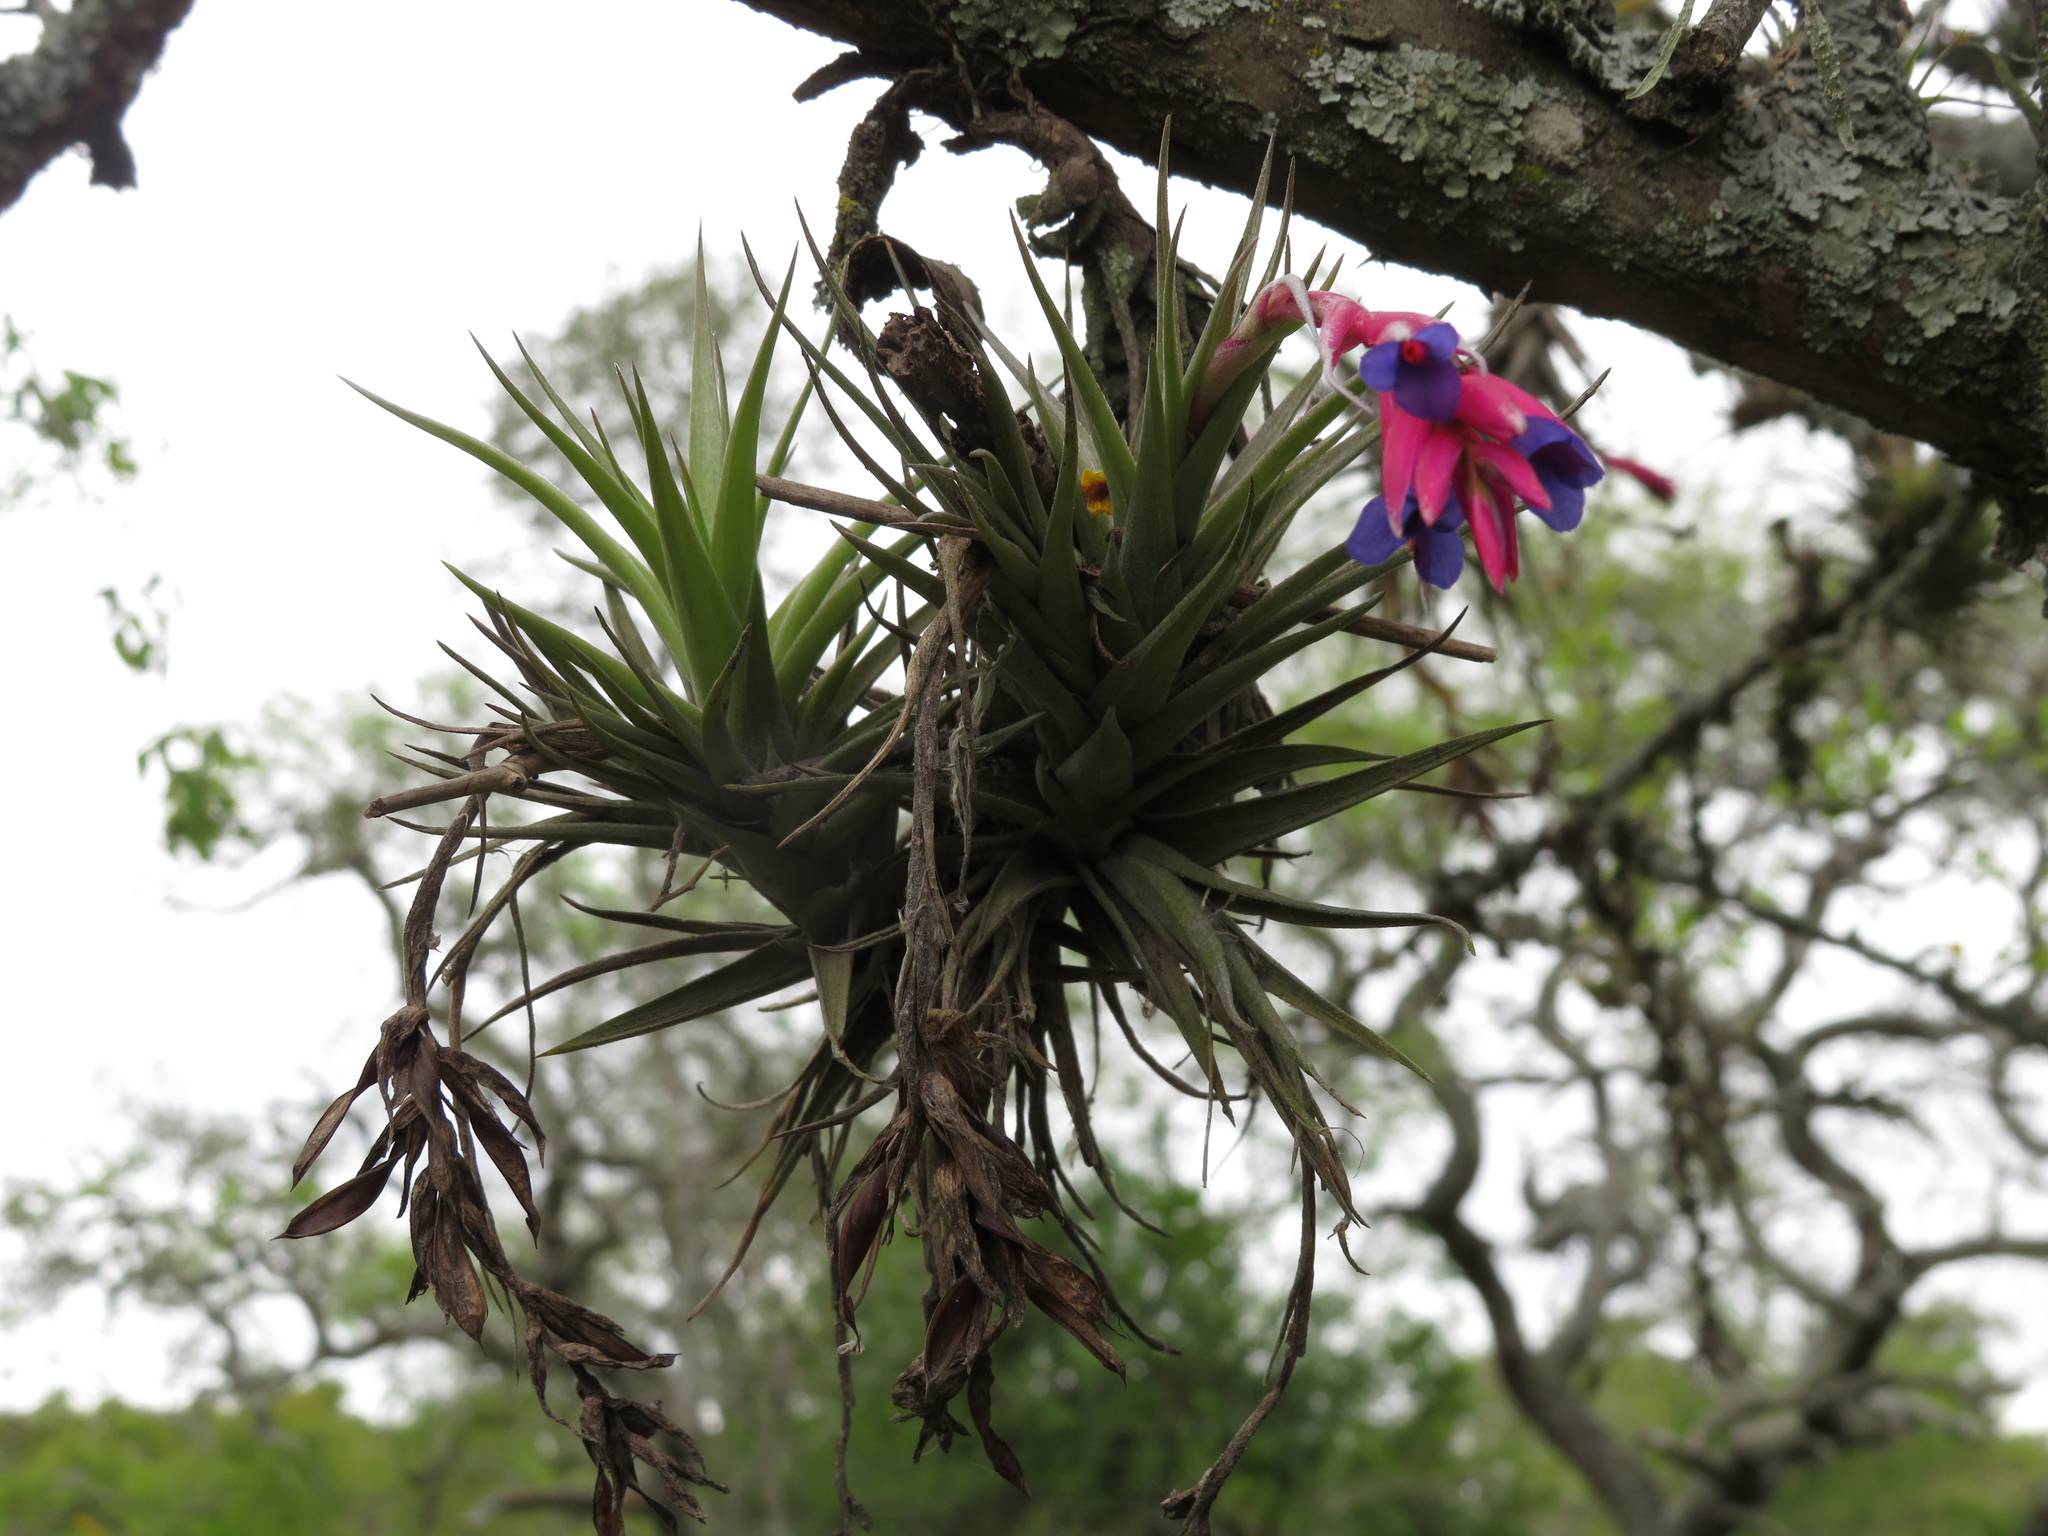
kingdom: Plantae
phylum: Tracheophyta
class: Liliopsida
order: Poales
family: Bromeliaceae
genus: Tillandsia
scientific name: Tillandsia aeranthos
